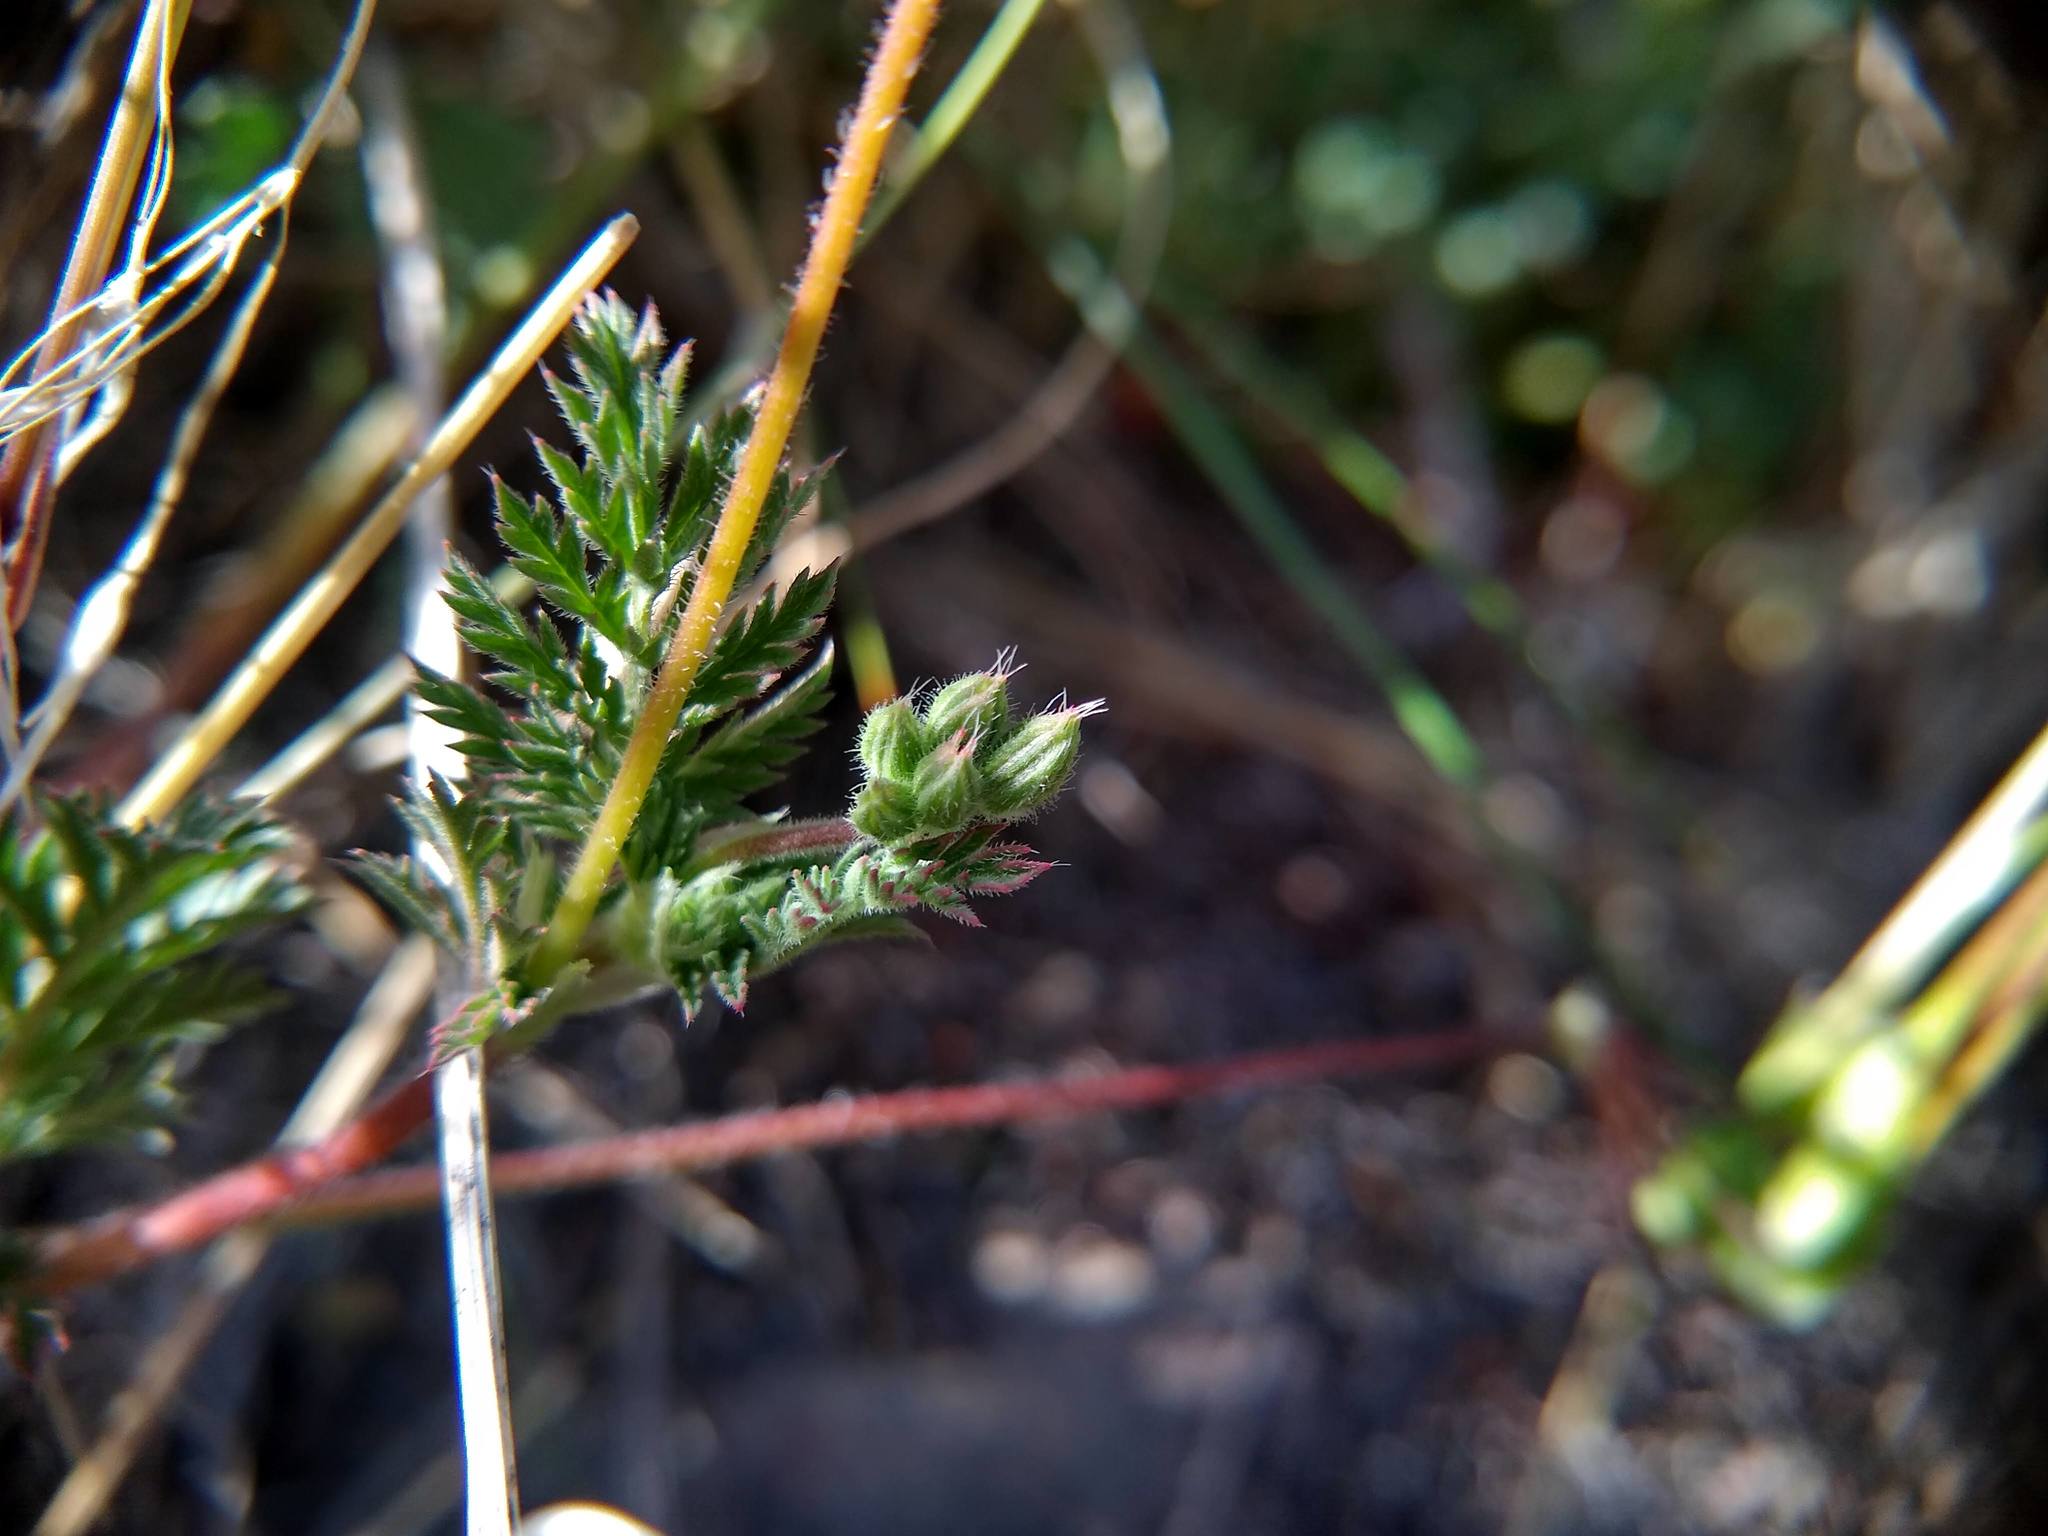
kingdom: Plantae
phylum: Tracheophyta
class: Magnoliopsida
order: Geraniales
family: Geraniaceae
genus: Erodium
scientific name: Erodium cicutarium
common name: Common stork's-bill
